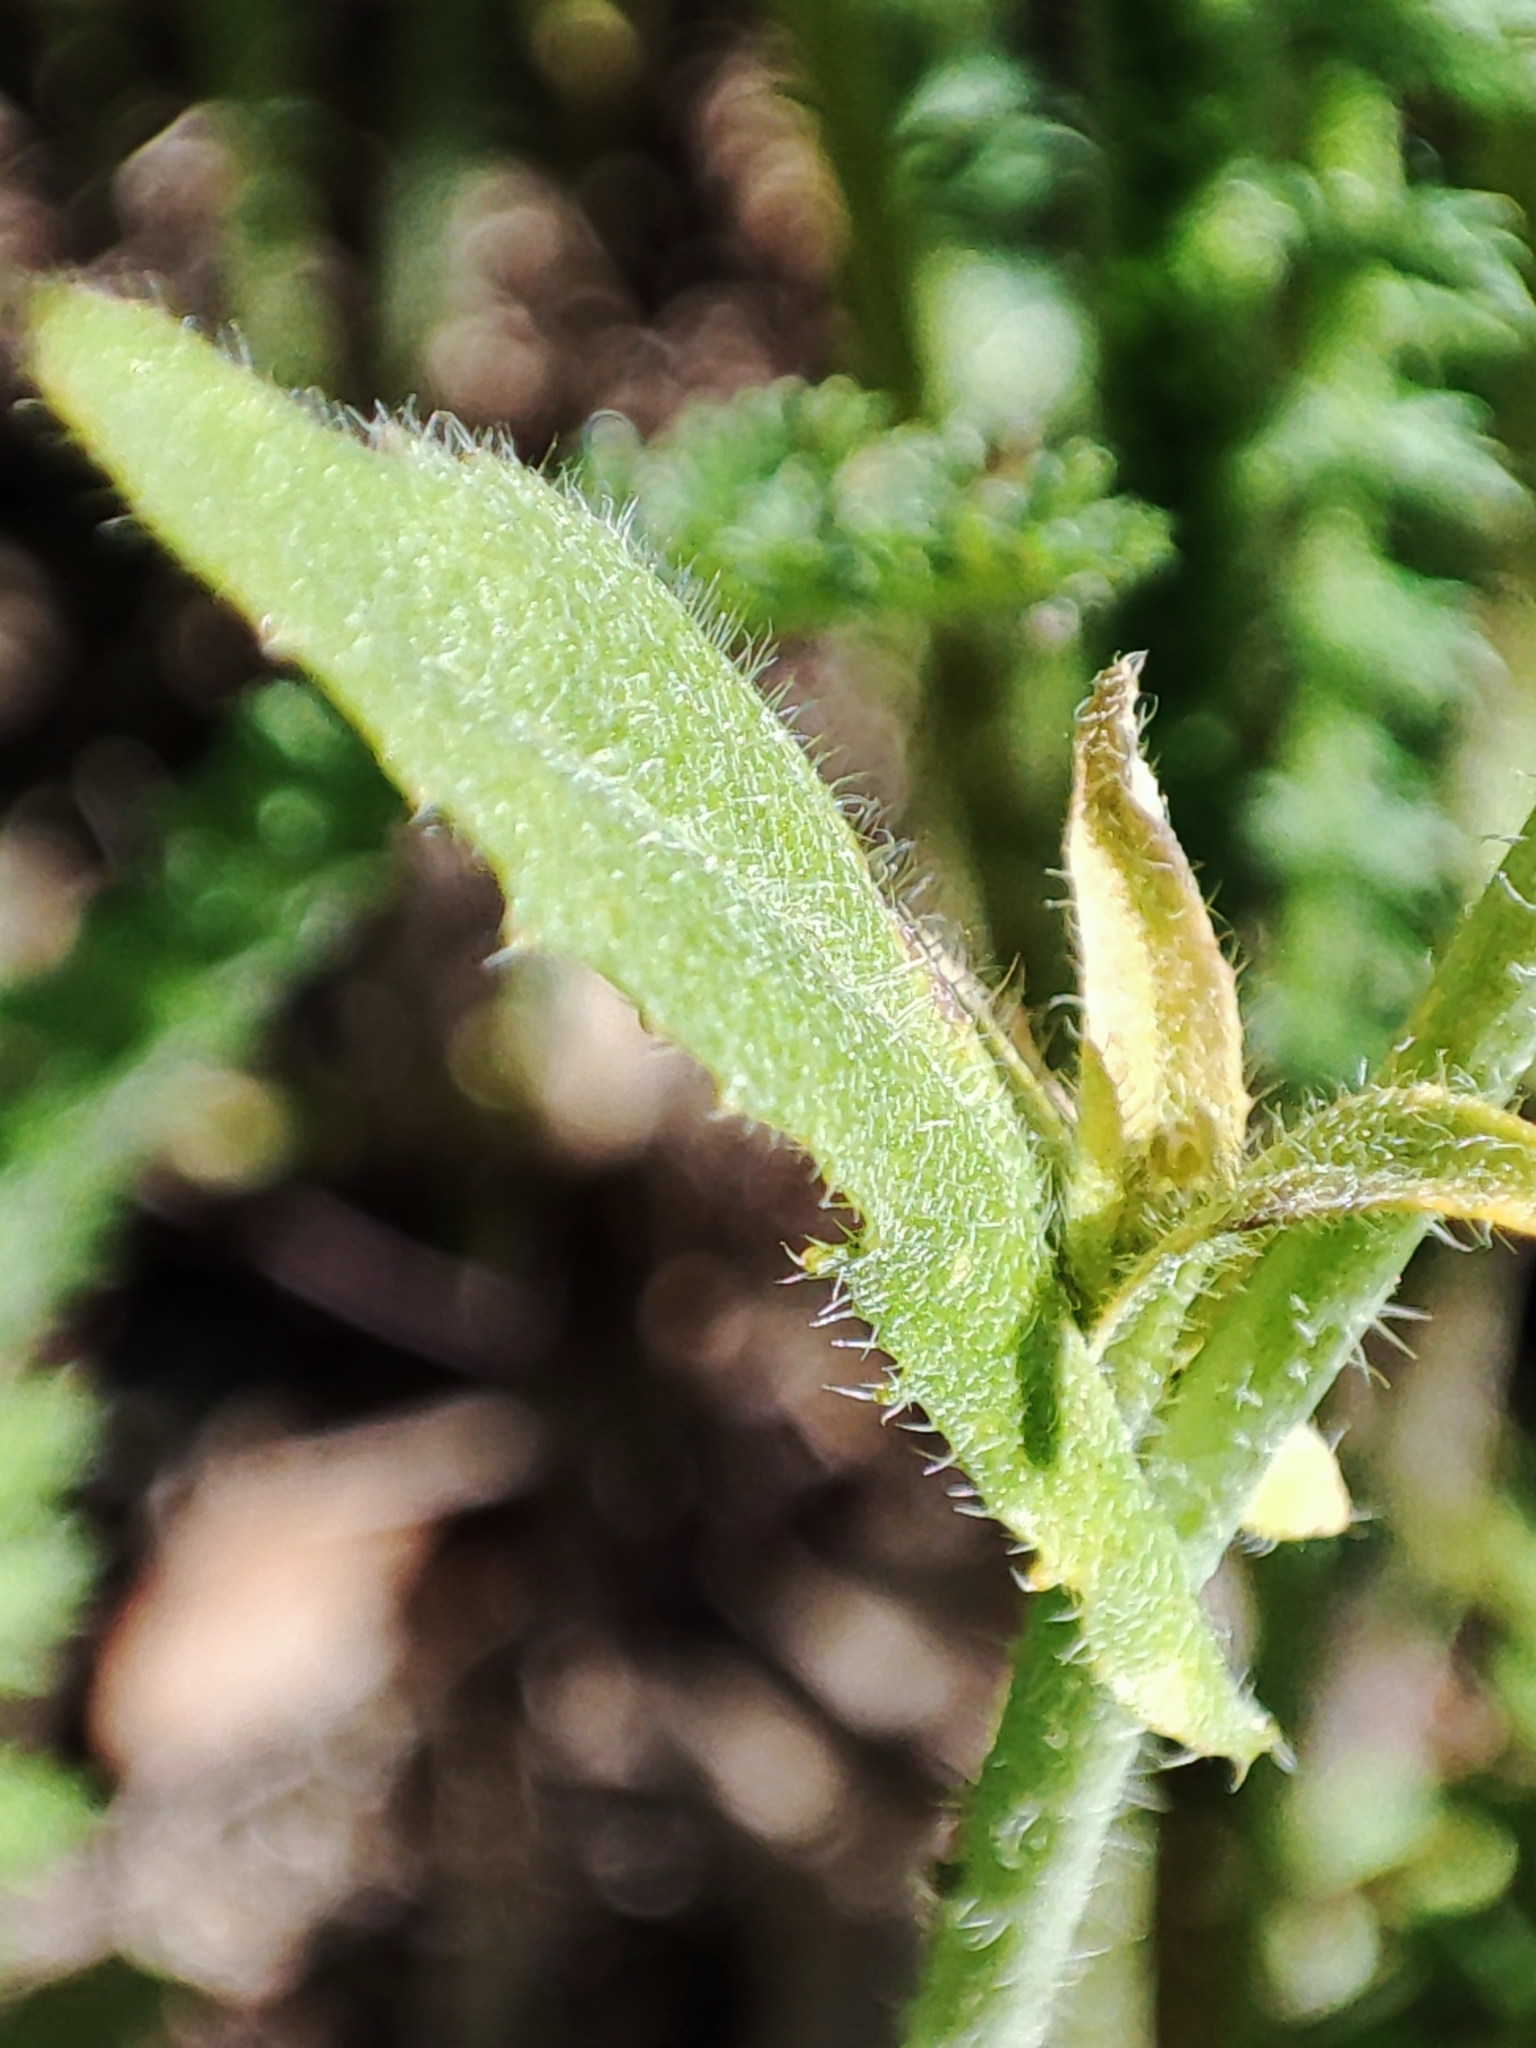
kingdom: Plantae
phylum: Tracheophyta
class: Magnoliopsida
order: Brassicales
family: Brassicaceae
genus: Capsella
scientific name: Capsella bursa-pastoris
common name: Shepherd's purse
